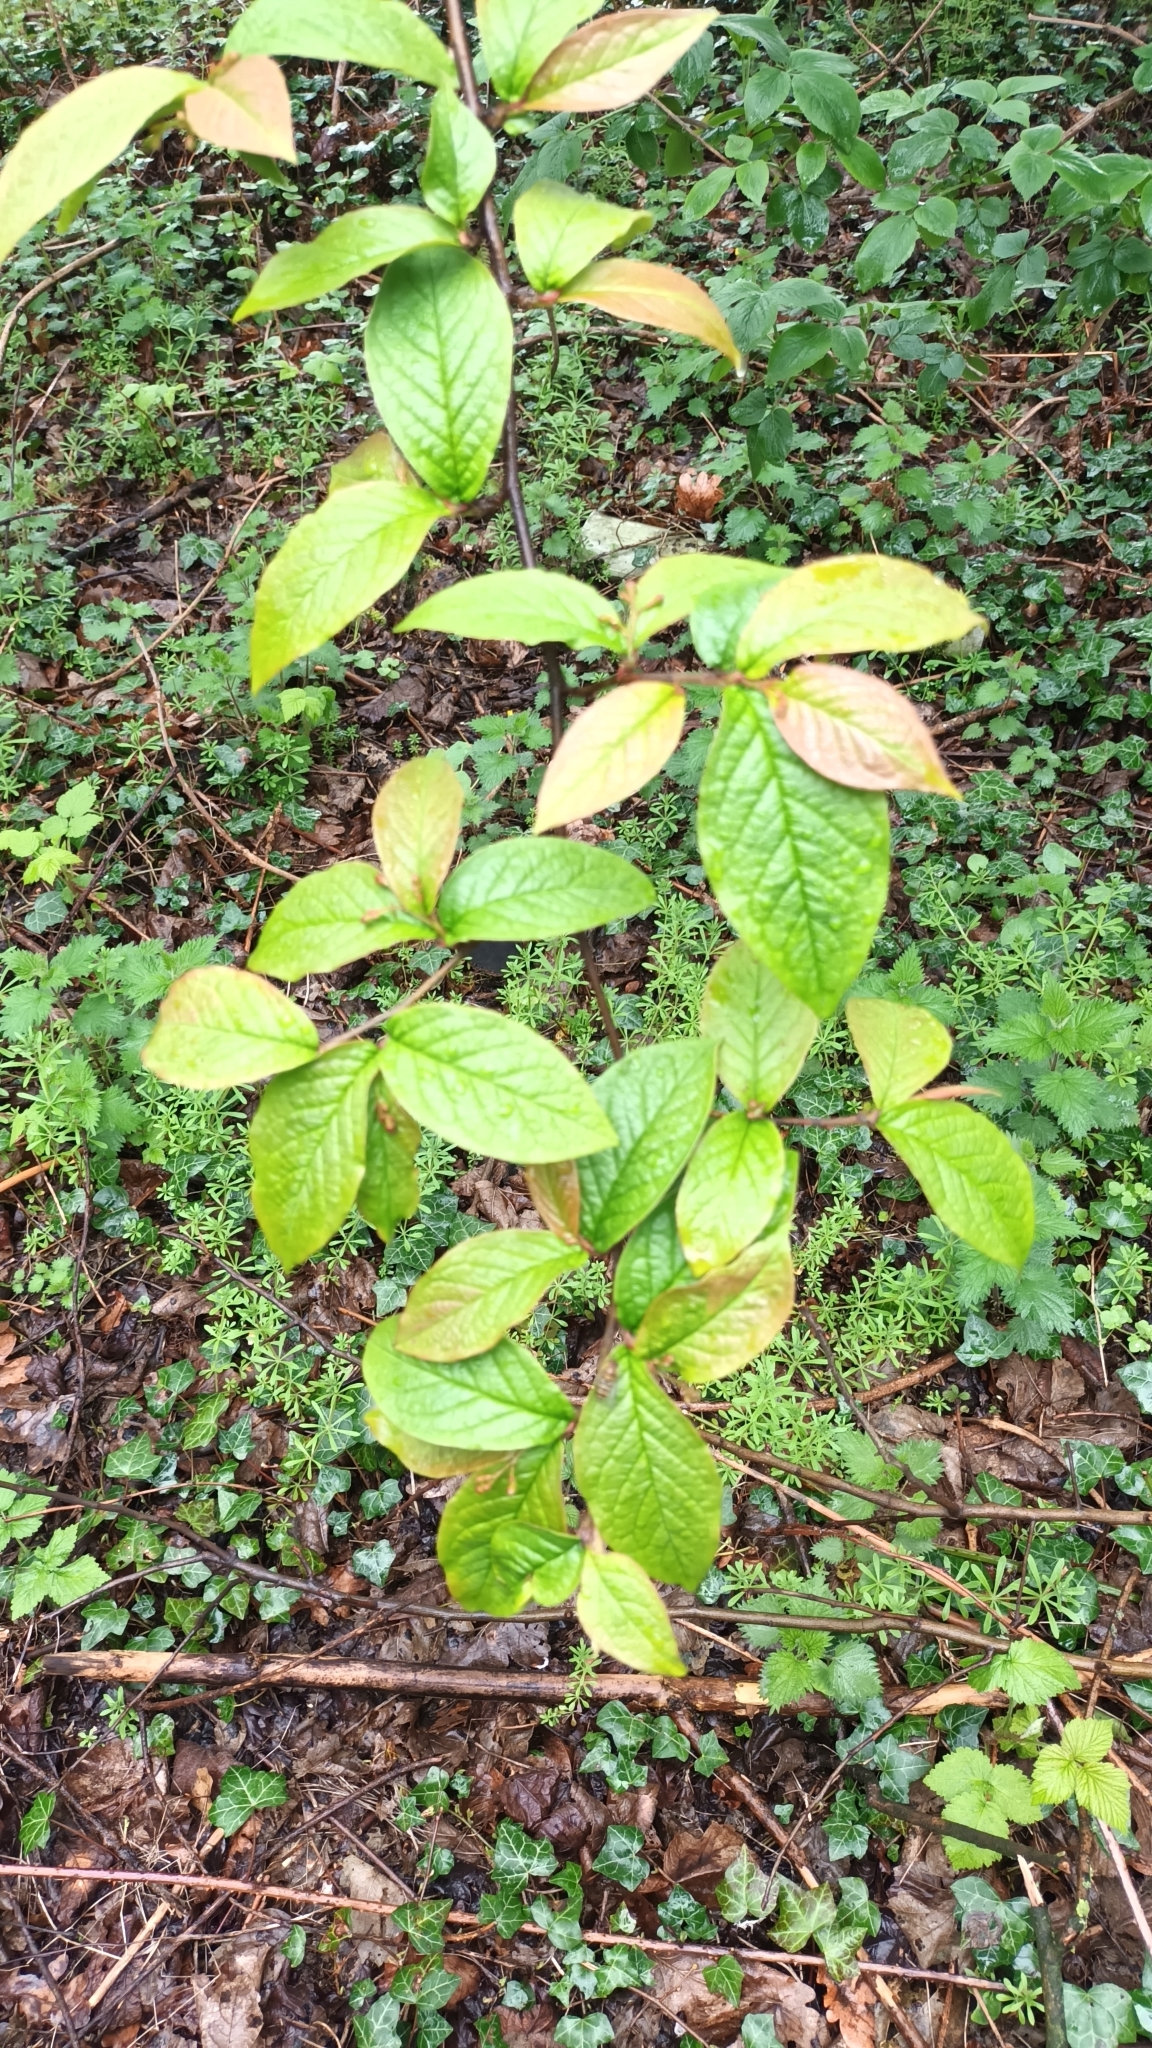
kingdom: Plantae
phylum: Tracheophyta
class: Magnoliopsida
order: Rosales
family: Rosaceae
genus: Prunus
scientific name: Prunus padus
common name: Bird cherry
